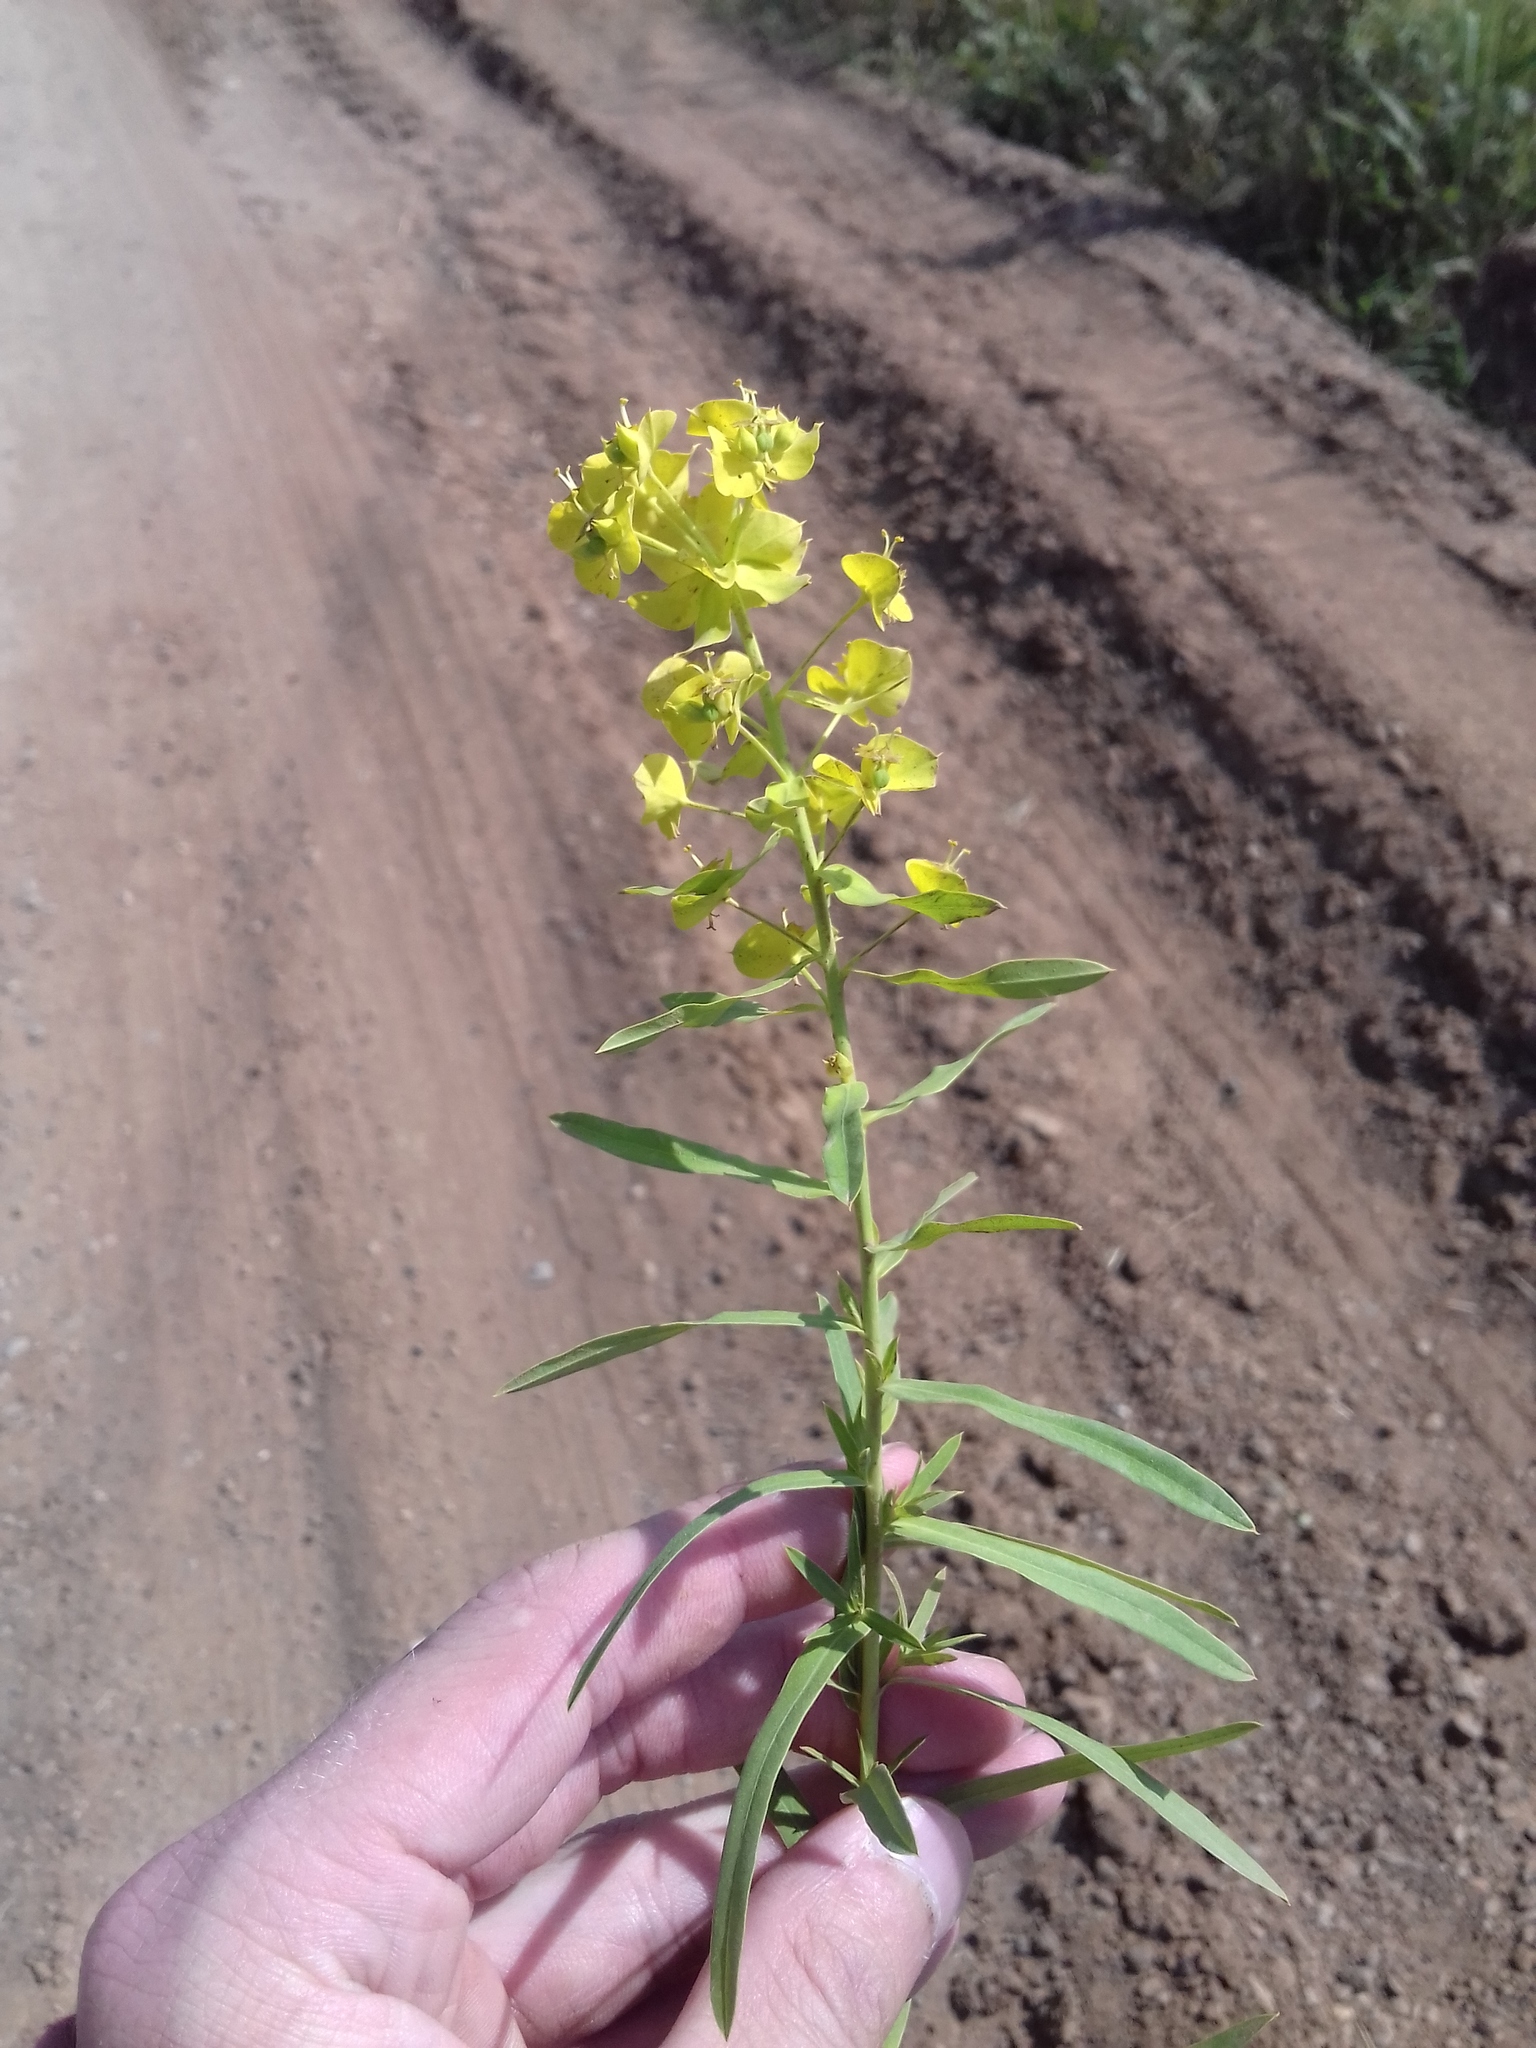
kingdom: Plantae
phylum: Tracheophyta
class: Magnoliopsida
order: Malpighiales
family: Euphorbiaceae
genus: Euphorbia
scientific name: Euphorbia virgata
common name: Leafy spurge
